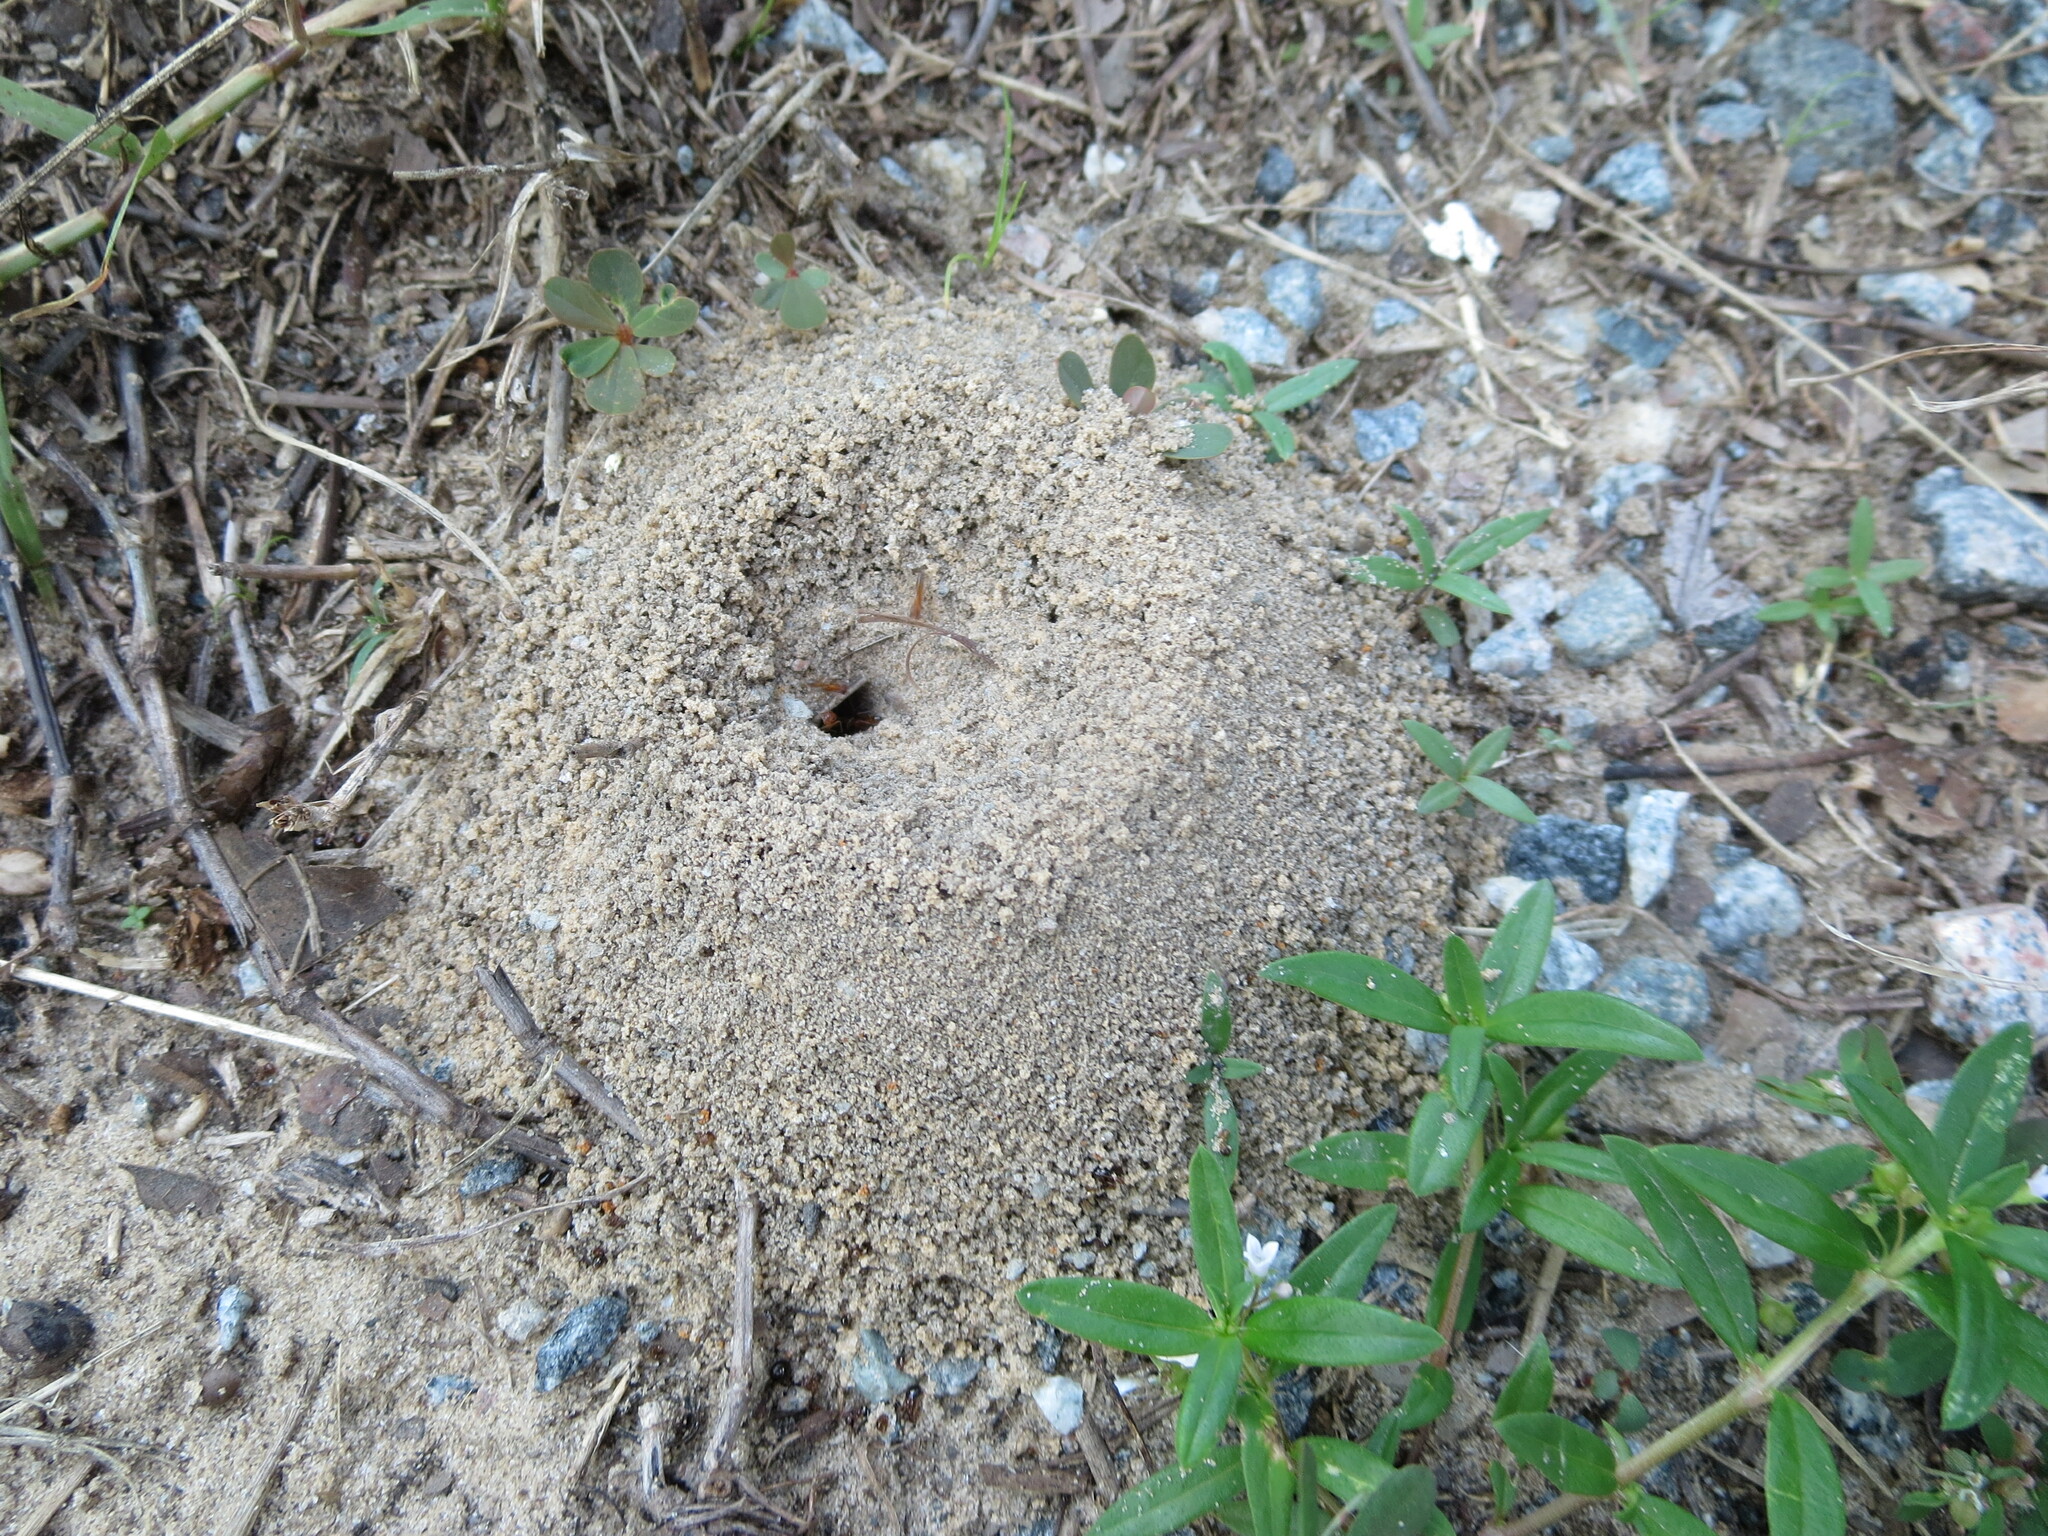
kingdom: Animalia
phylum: Arthropoda
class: Insecta
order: Hymenoptera
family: Formicidae
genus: Dorymyrmex
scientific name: Dorymyrmex bureni
